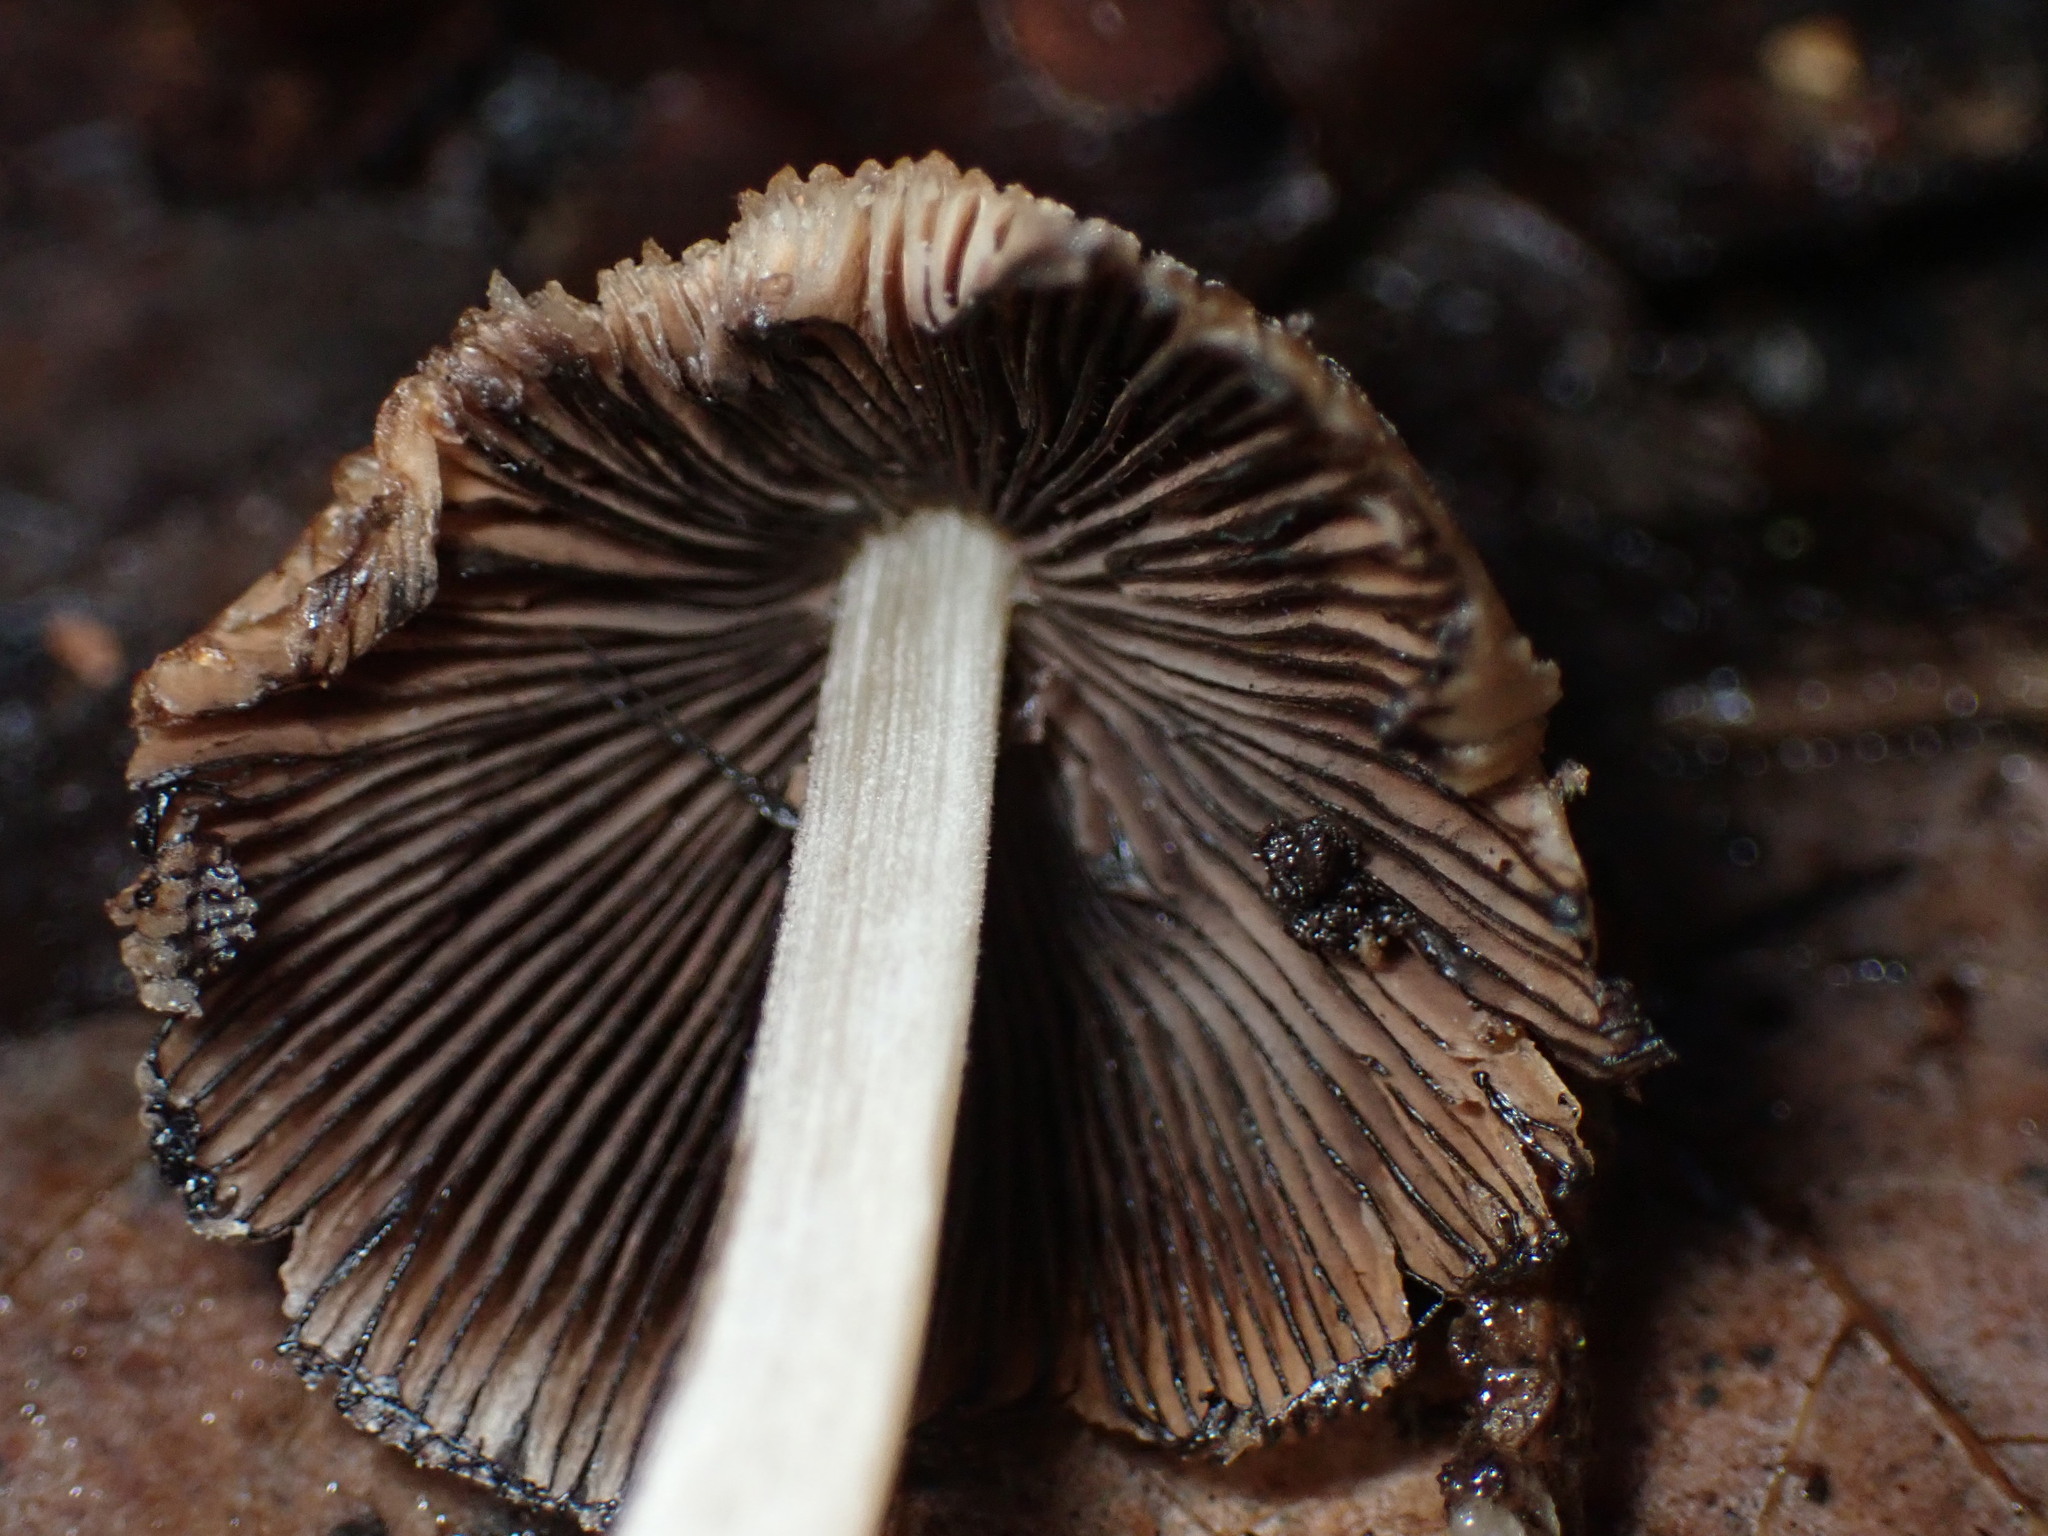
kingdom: Fungi
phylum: Basidiomycota
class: Agaricomycetes
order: Agaricales
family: Psathyrellaceae
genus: Coprinellus
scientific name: Coprinellus micaceus
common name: Glistening ink-cap
